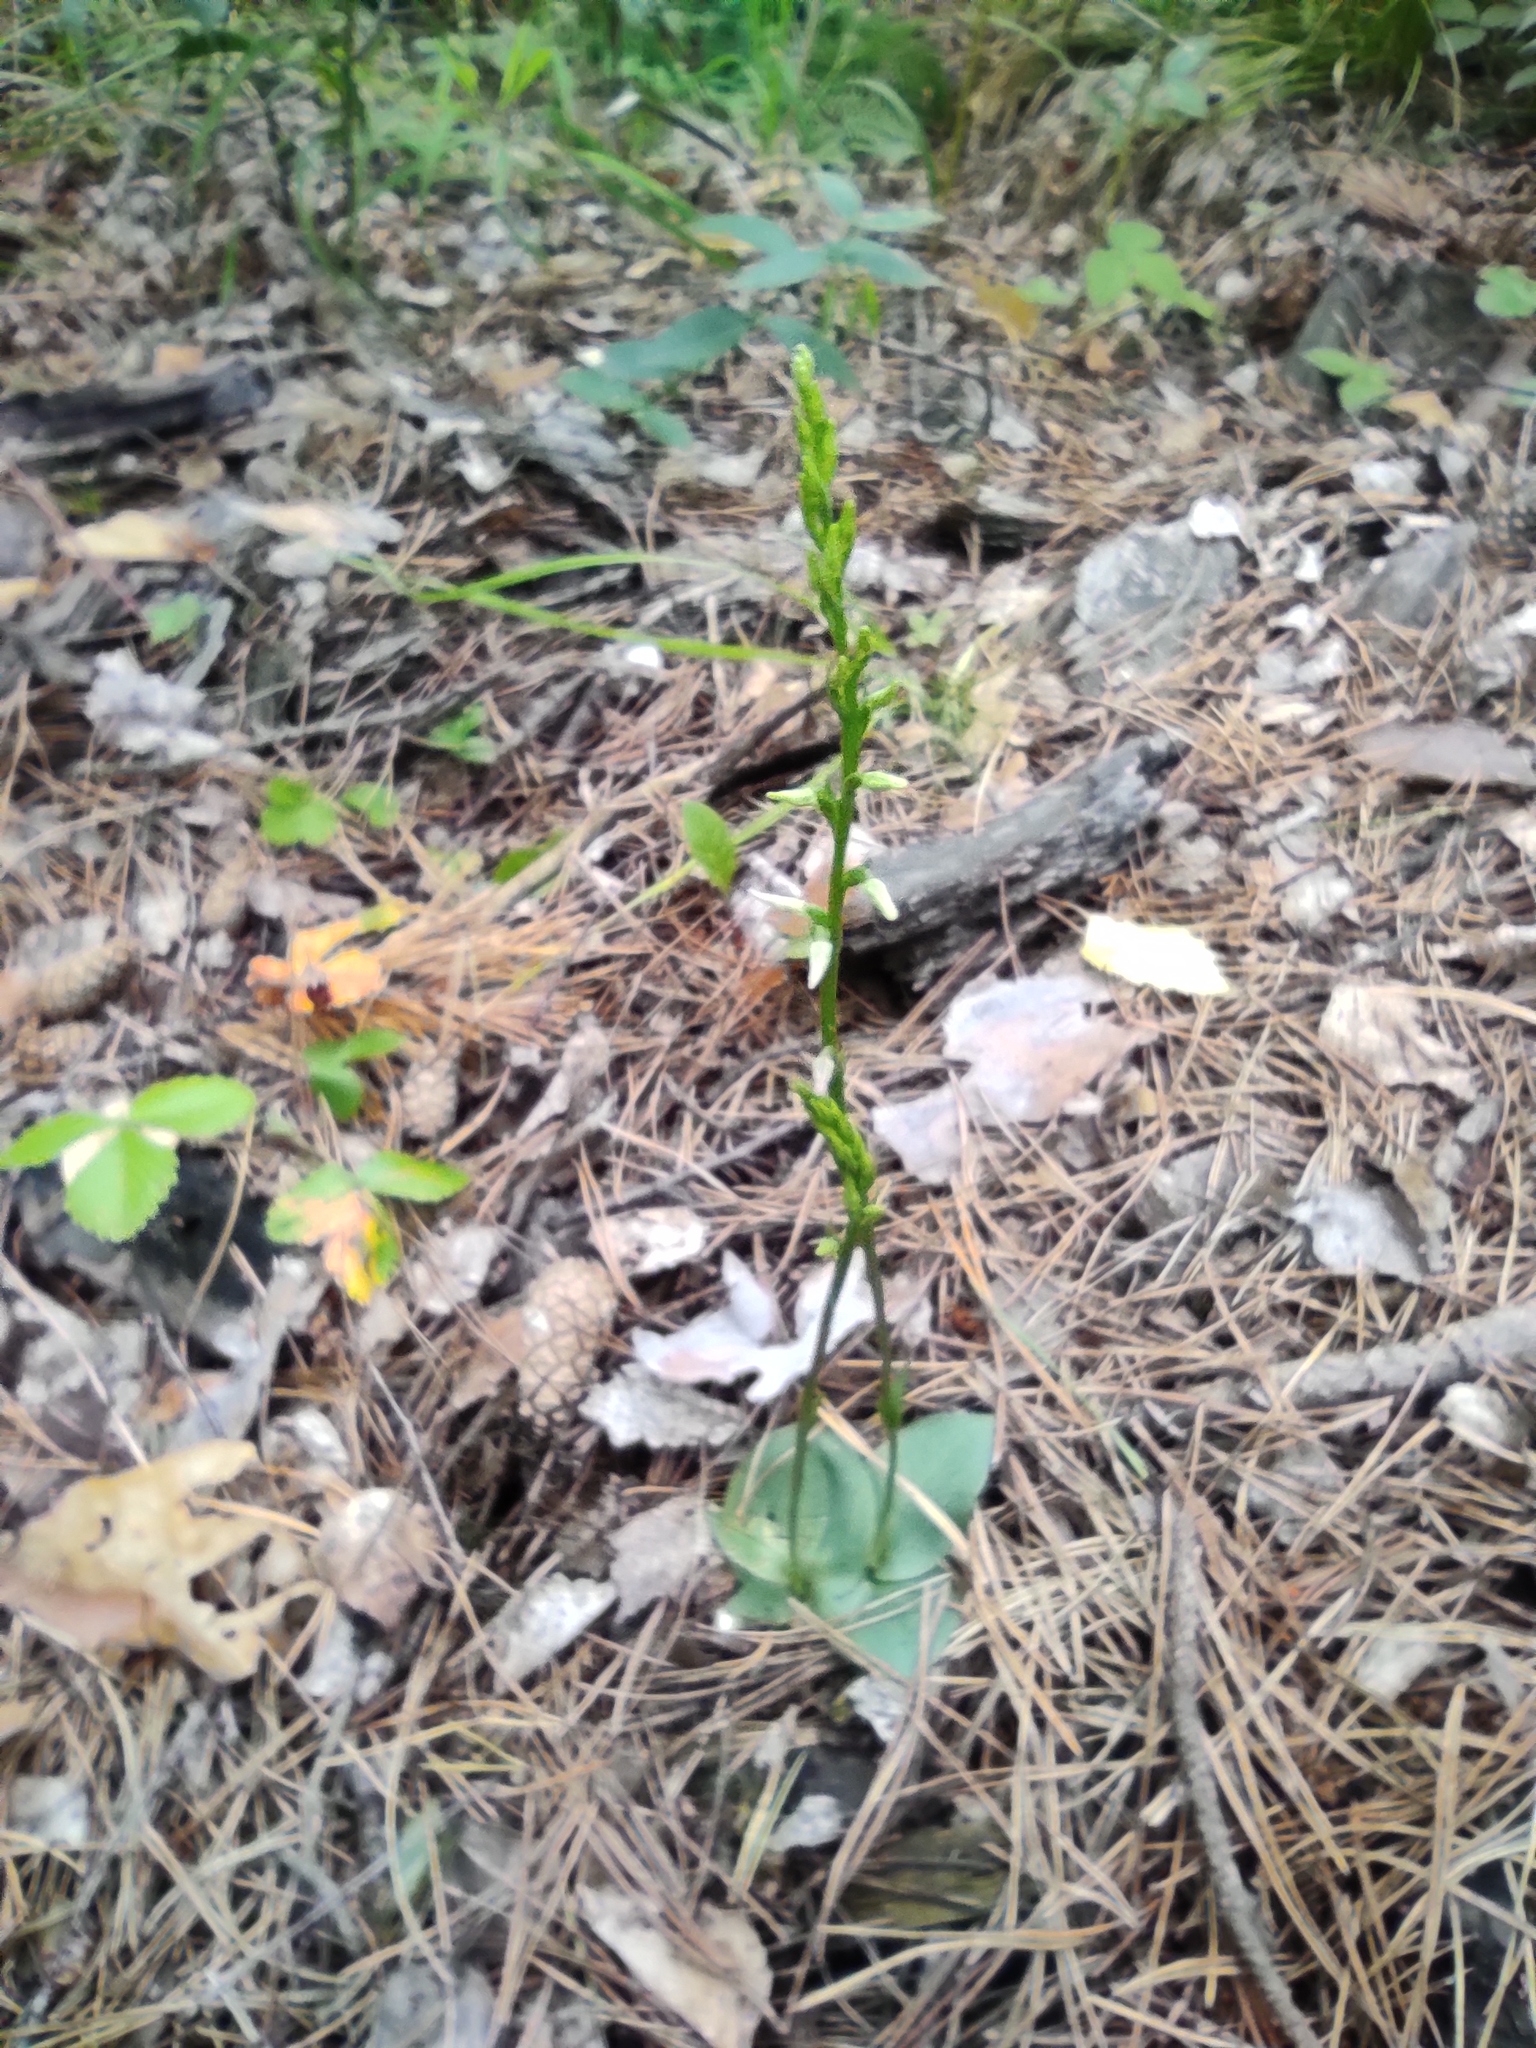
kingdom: Plantae
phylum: Tracheophyta
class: Liliopsida
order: Asparagales
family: Orchidaceae
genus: Hemipilia
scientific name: Hemipilia cucullata
